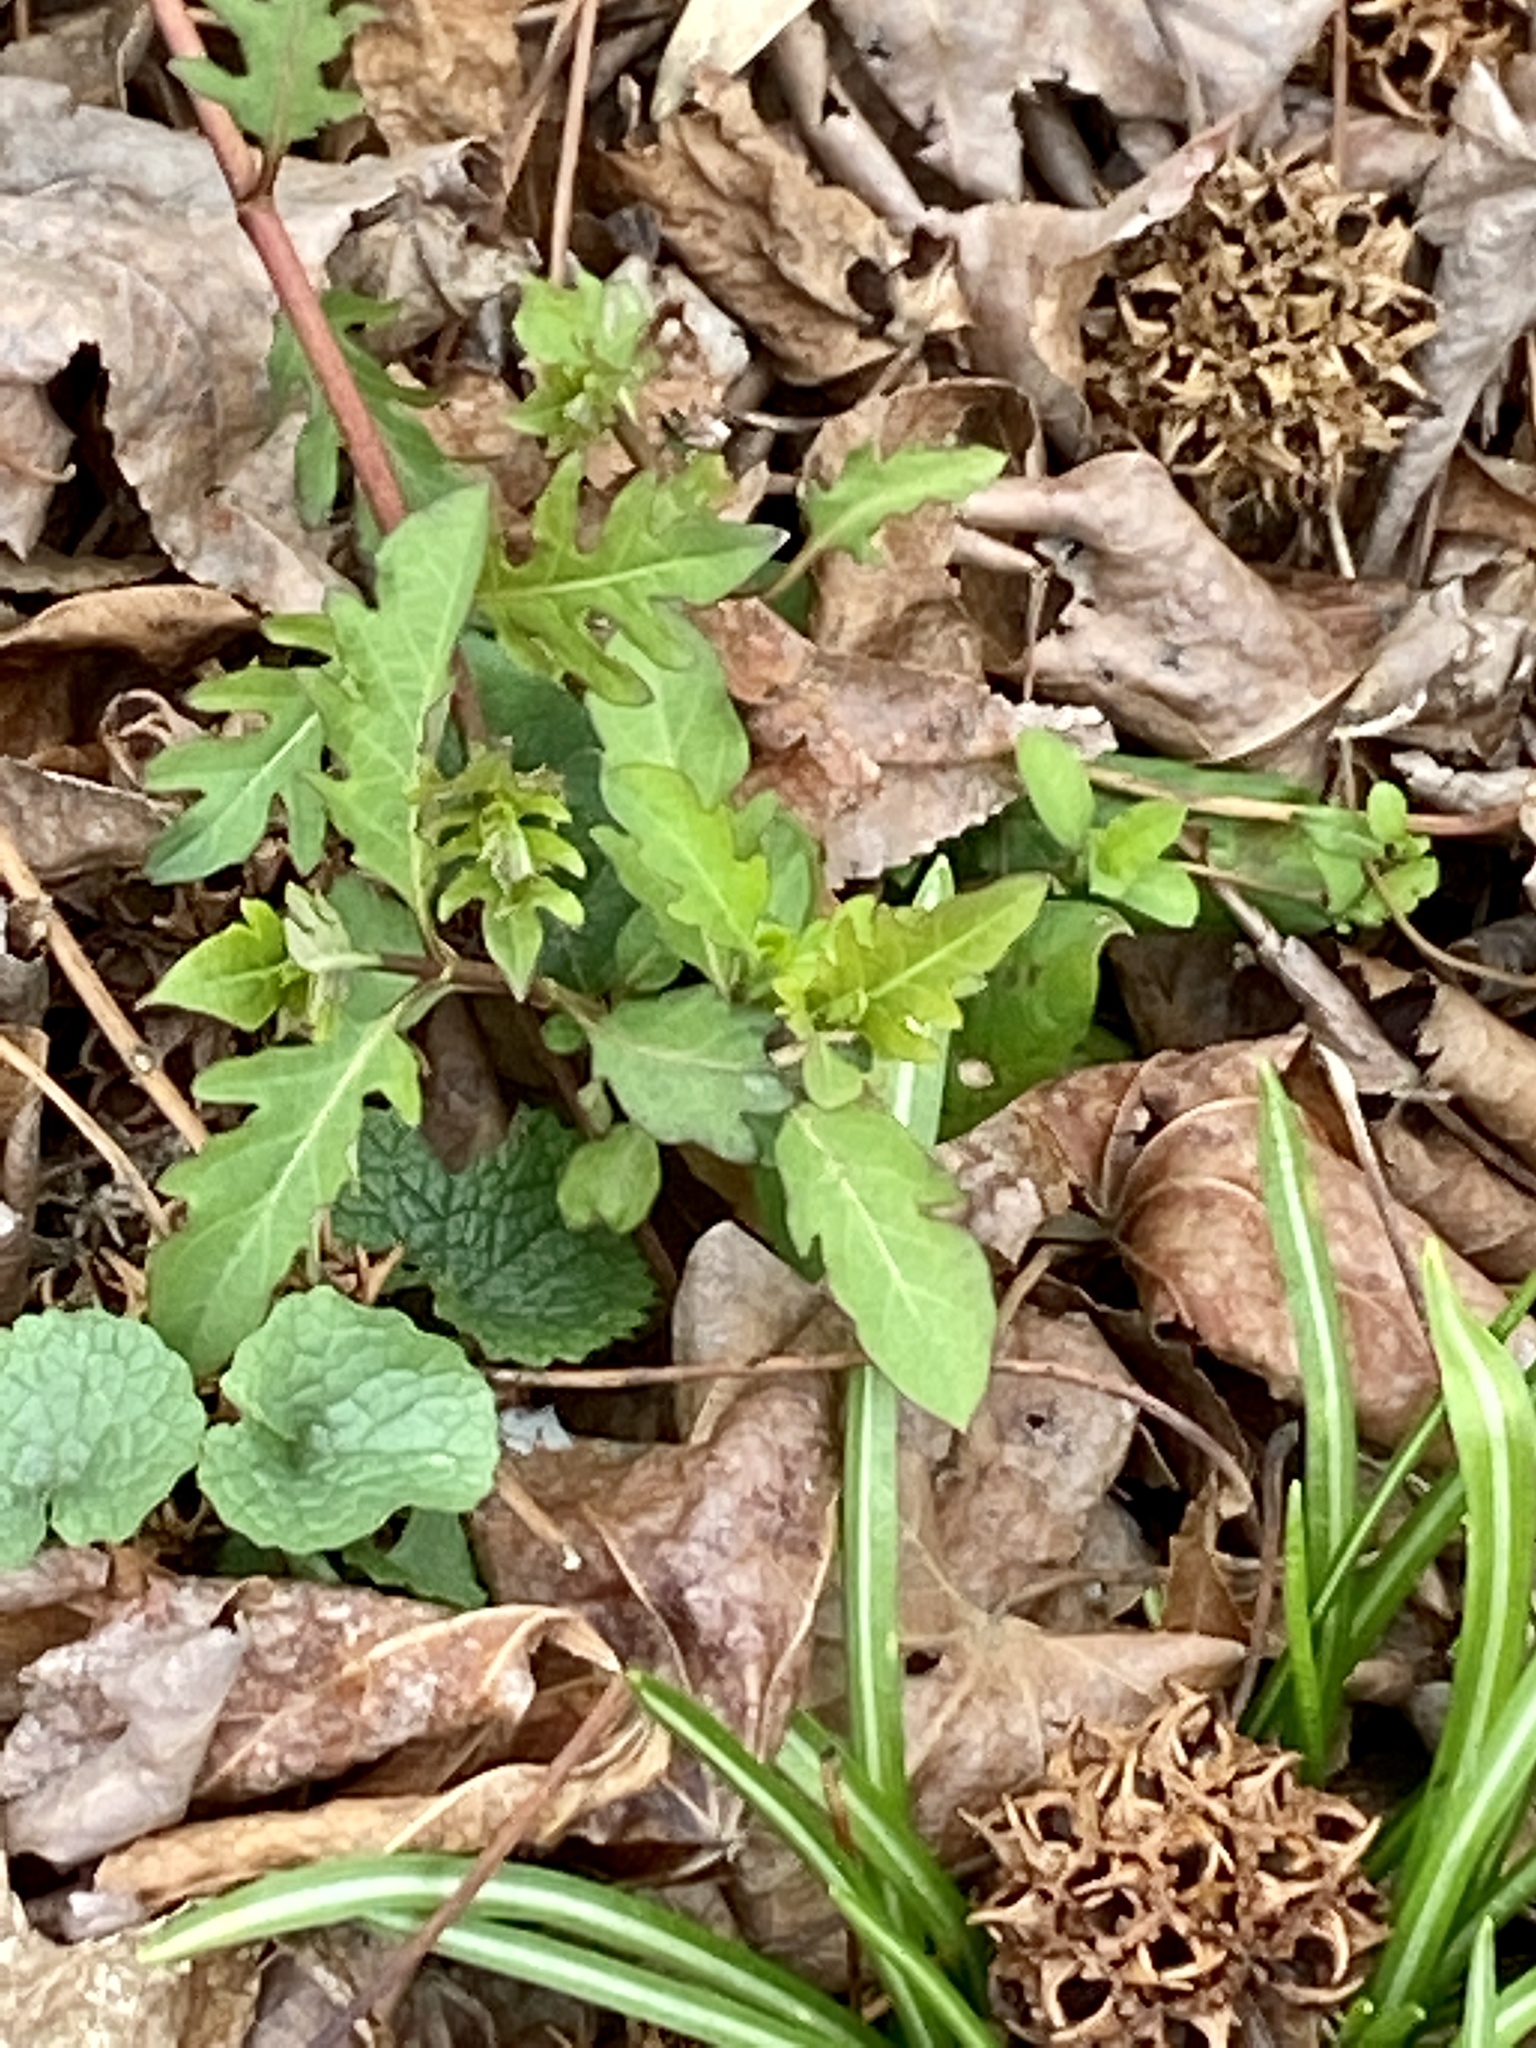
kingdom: Plantae
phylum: Tracheophyta
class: Magnoliopsida
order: Dipsacales
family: Caprifoliaceae
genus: Lonicera
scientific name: Lonicera japonica
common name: Japanese honeysuckle
